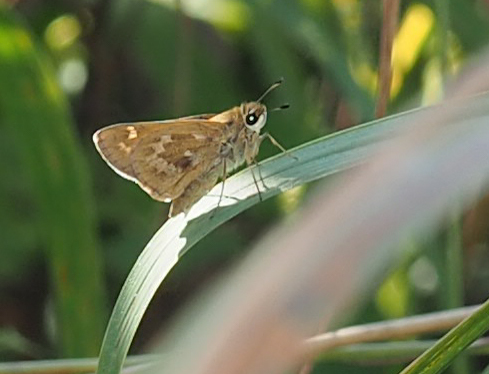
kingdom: Animalia
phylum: Arthropoda
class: Insecta
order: Lepidoptera
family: Hesperiidae
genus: Atalopedes
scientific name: Atalopedes
